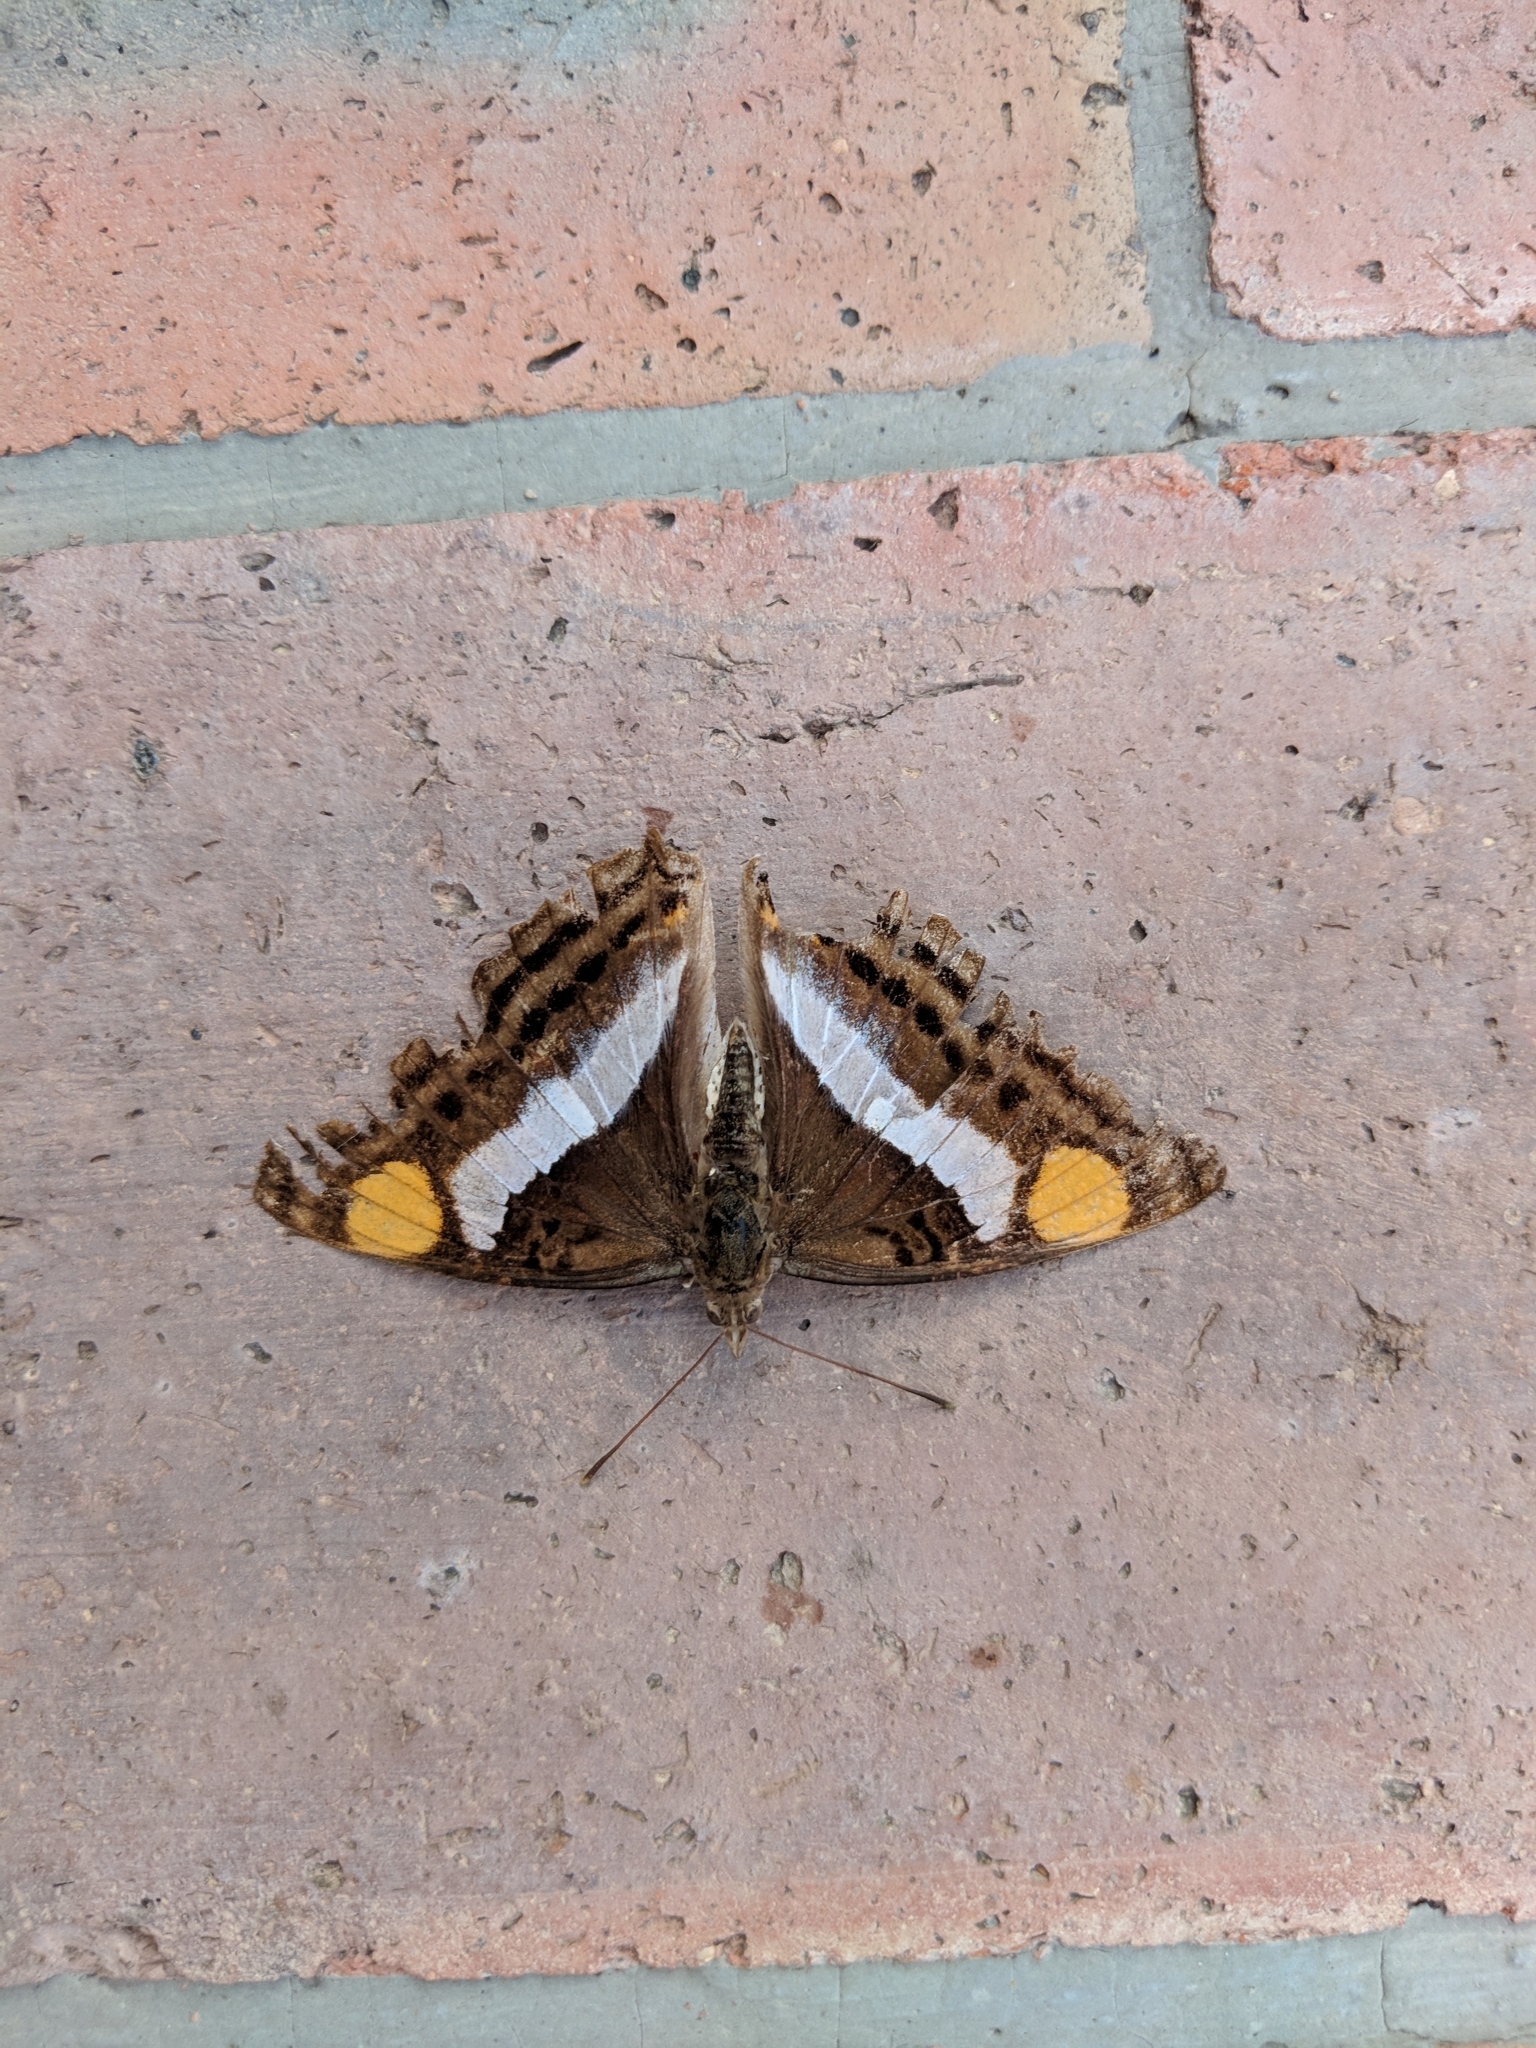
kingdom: Animalia
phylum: Arthropoda
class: Insecta
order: Lepidoptera
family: Nymphalidae
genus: Doxocopa
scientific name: Doxocopa laure
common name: Silver emperor
